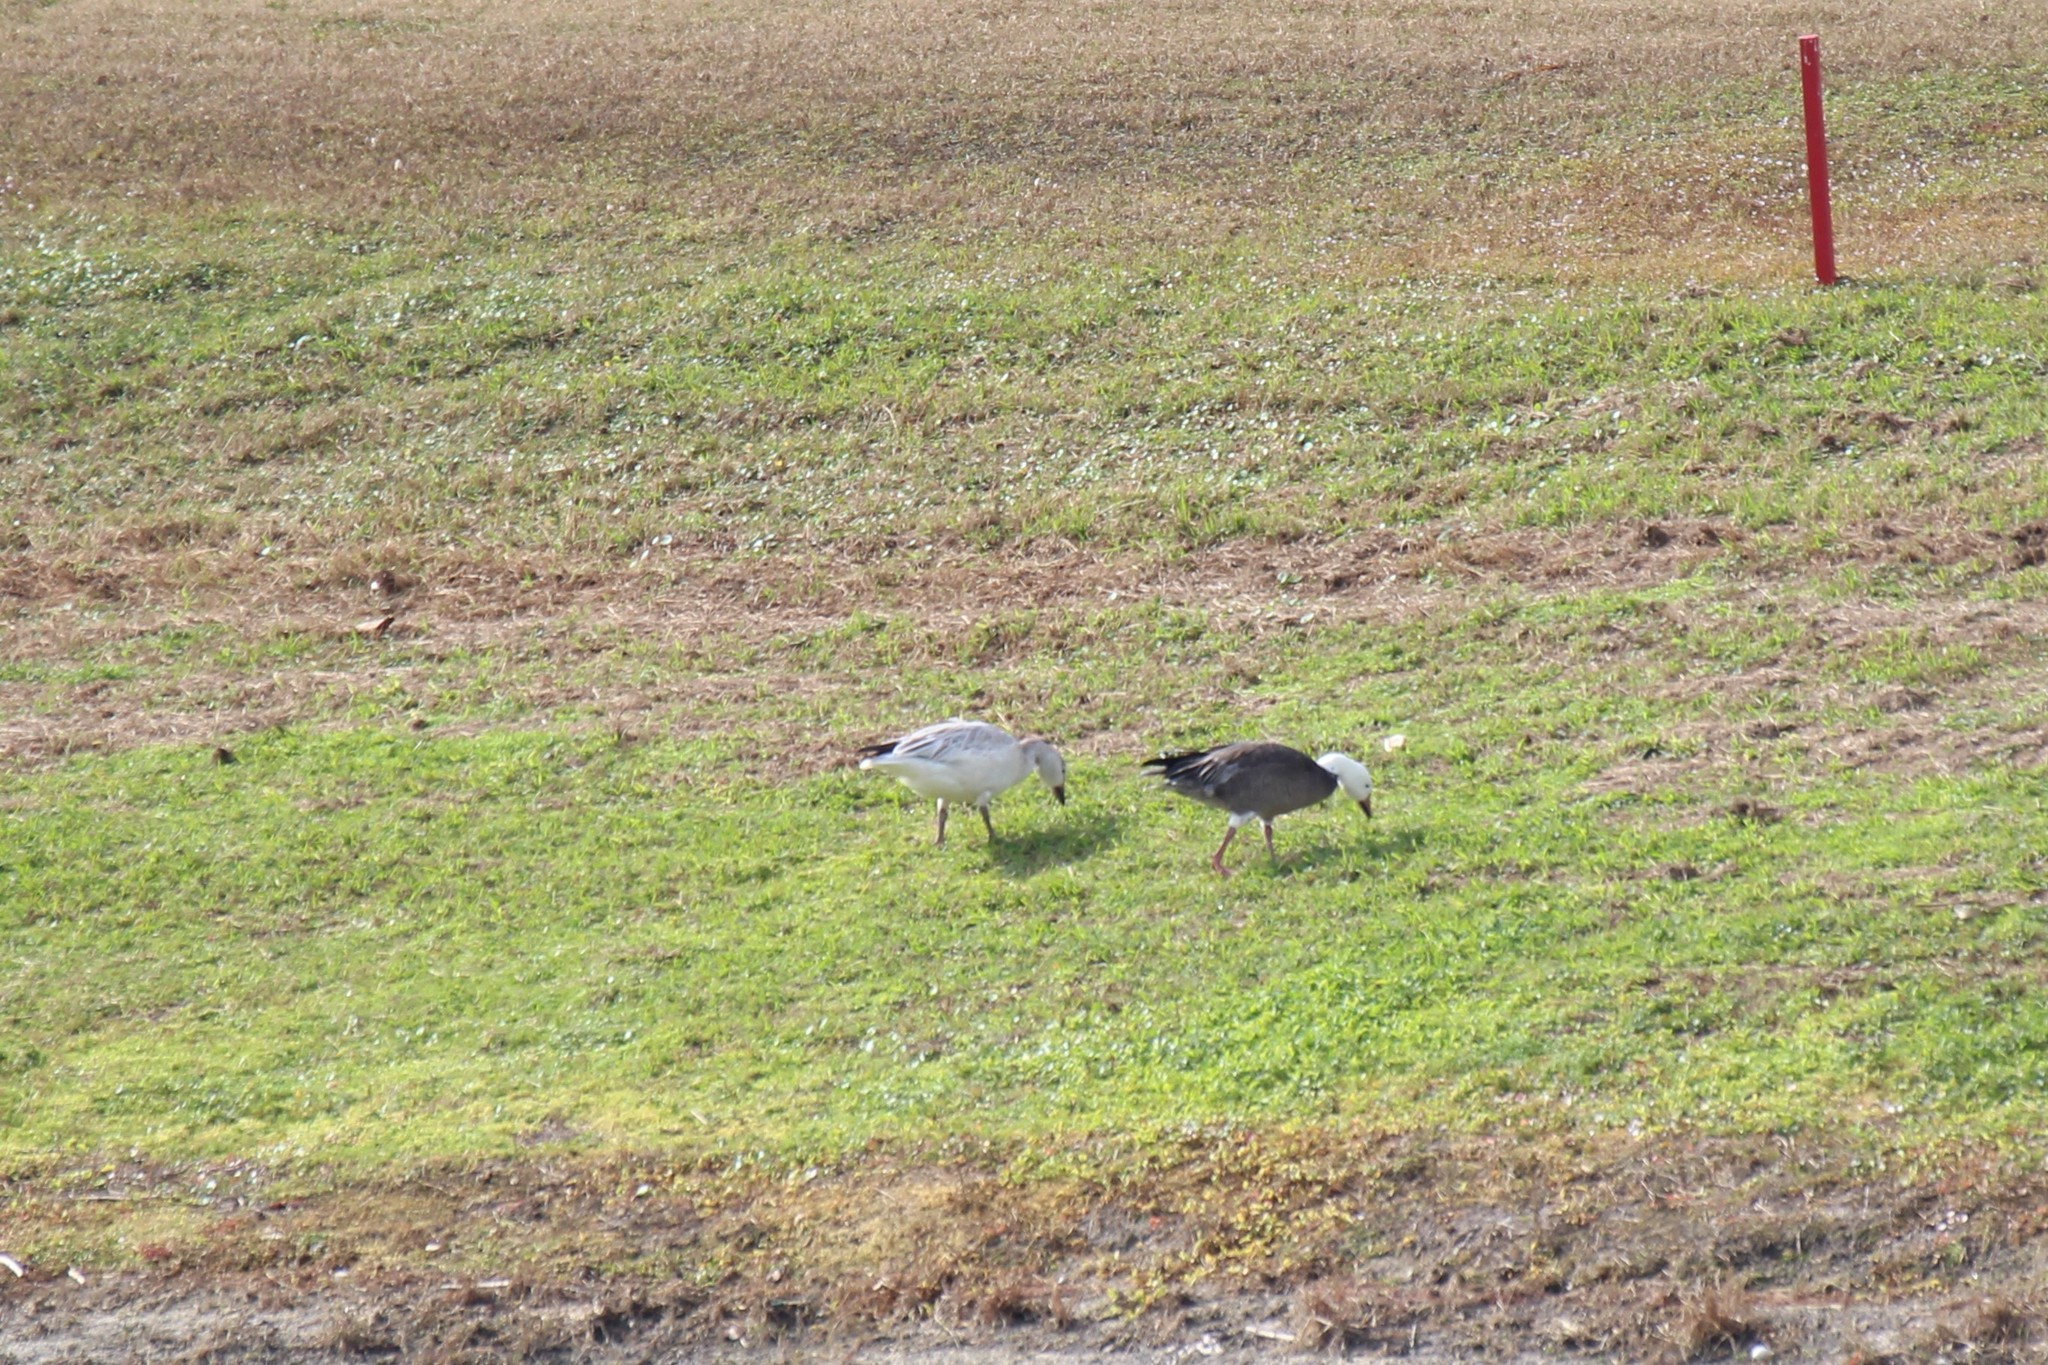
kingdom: Animalia
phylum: Chordata
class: Aves
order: Anseriformes
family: Anatidae
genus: Anser
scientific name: Anser caerulescens
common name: Snow goose
